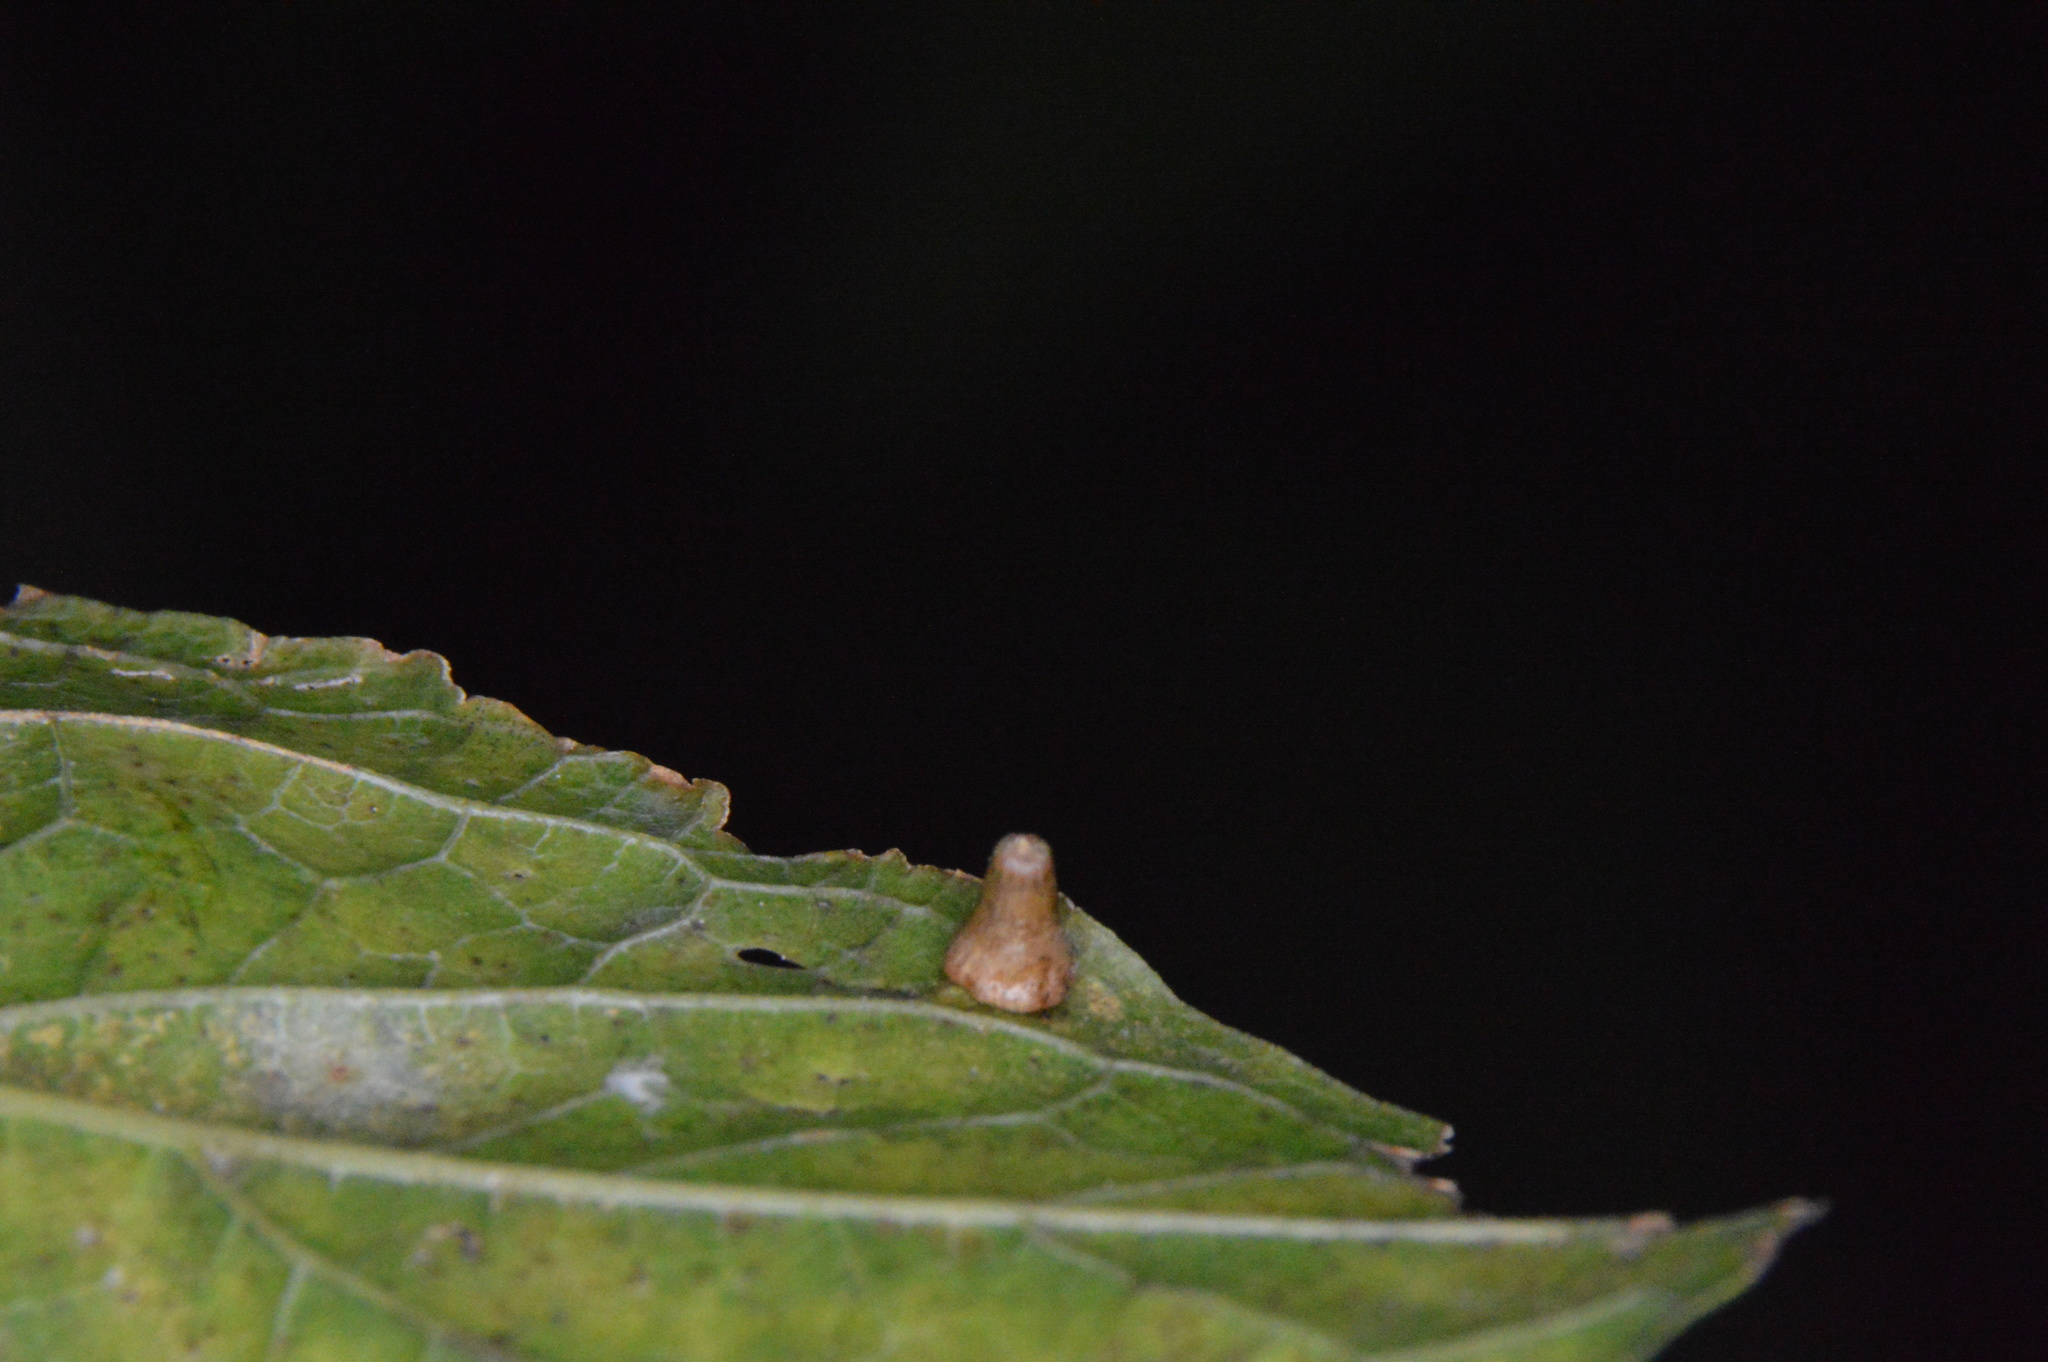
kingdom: Animalia
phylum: Arthropoda
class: Insecta
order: Diptera
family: Cecidomyiidae
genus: Celticecis
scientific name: Celticecis aciculata
